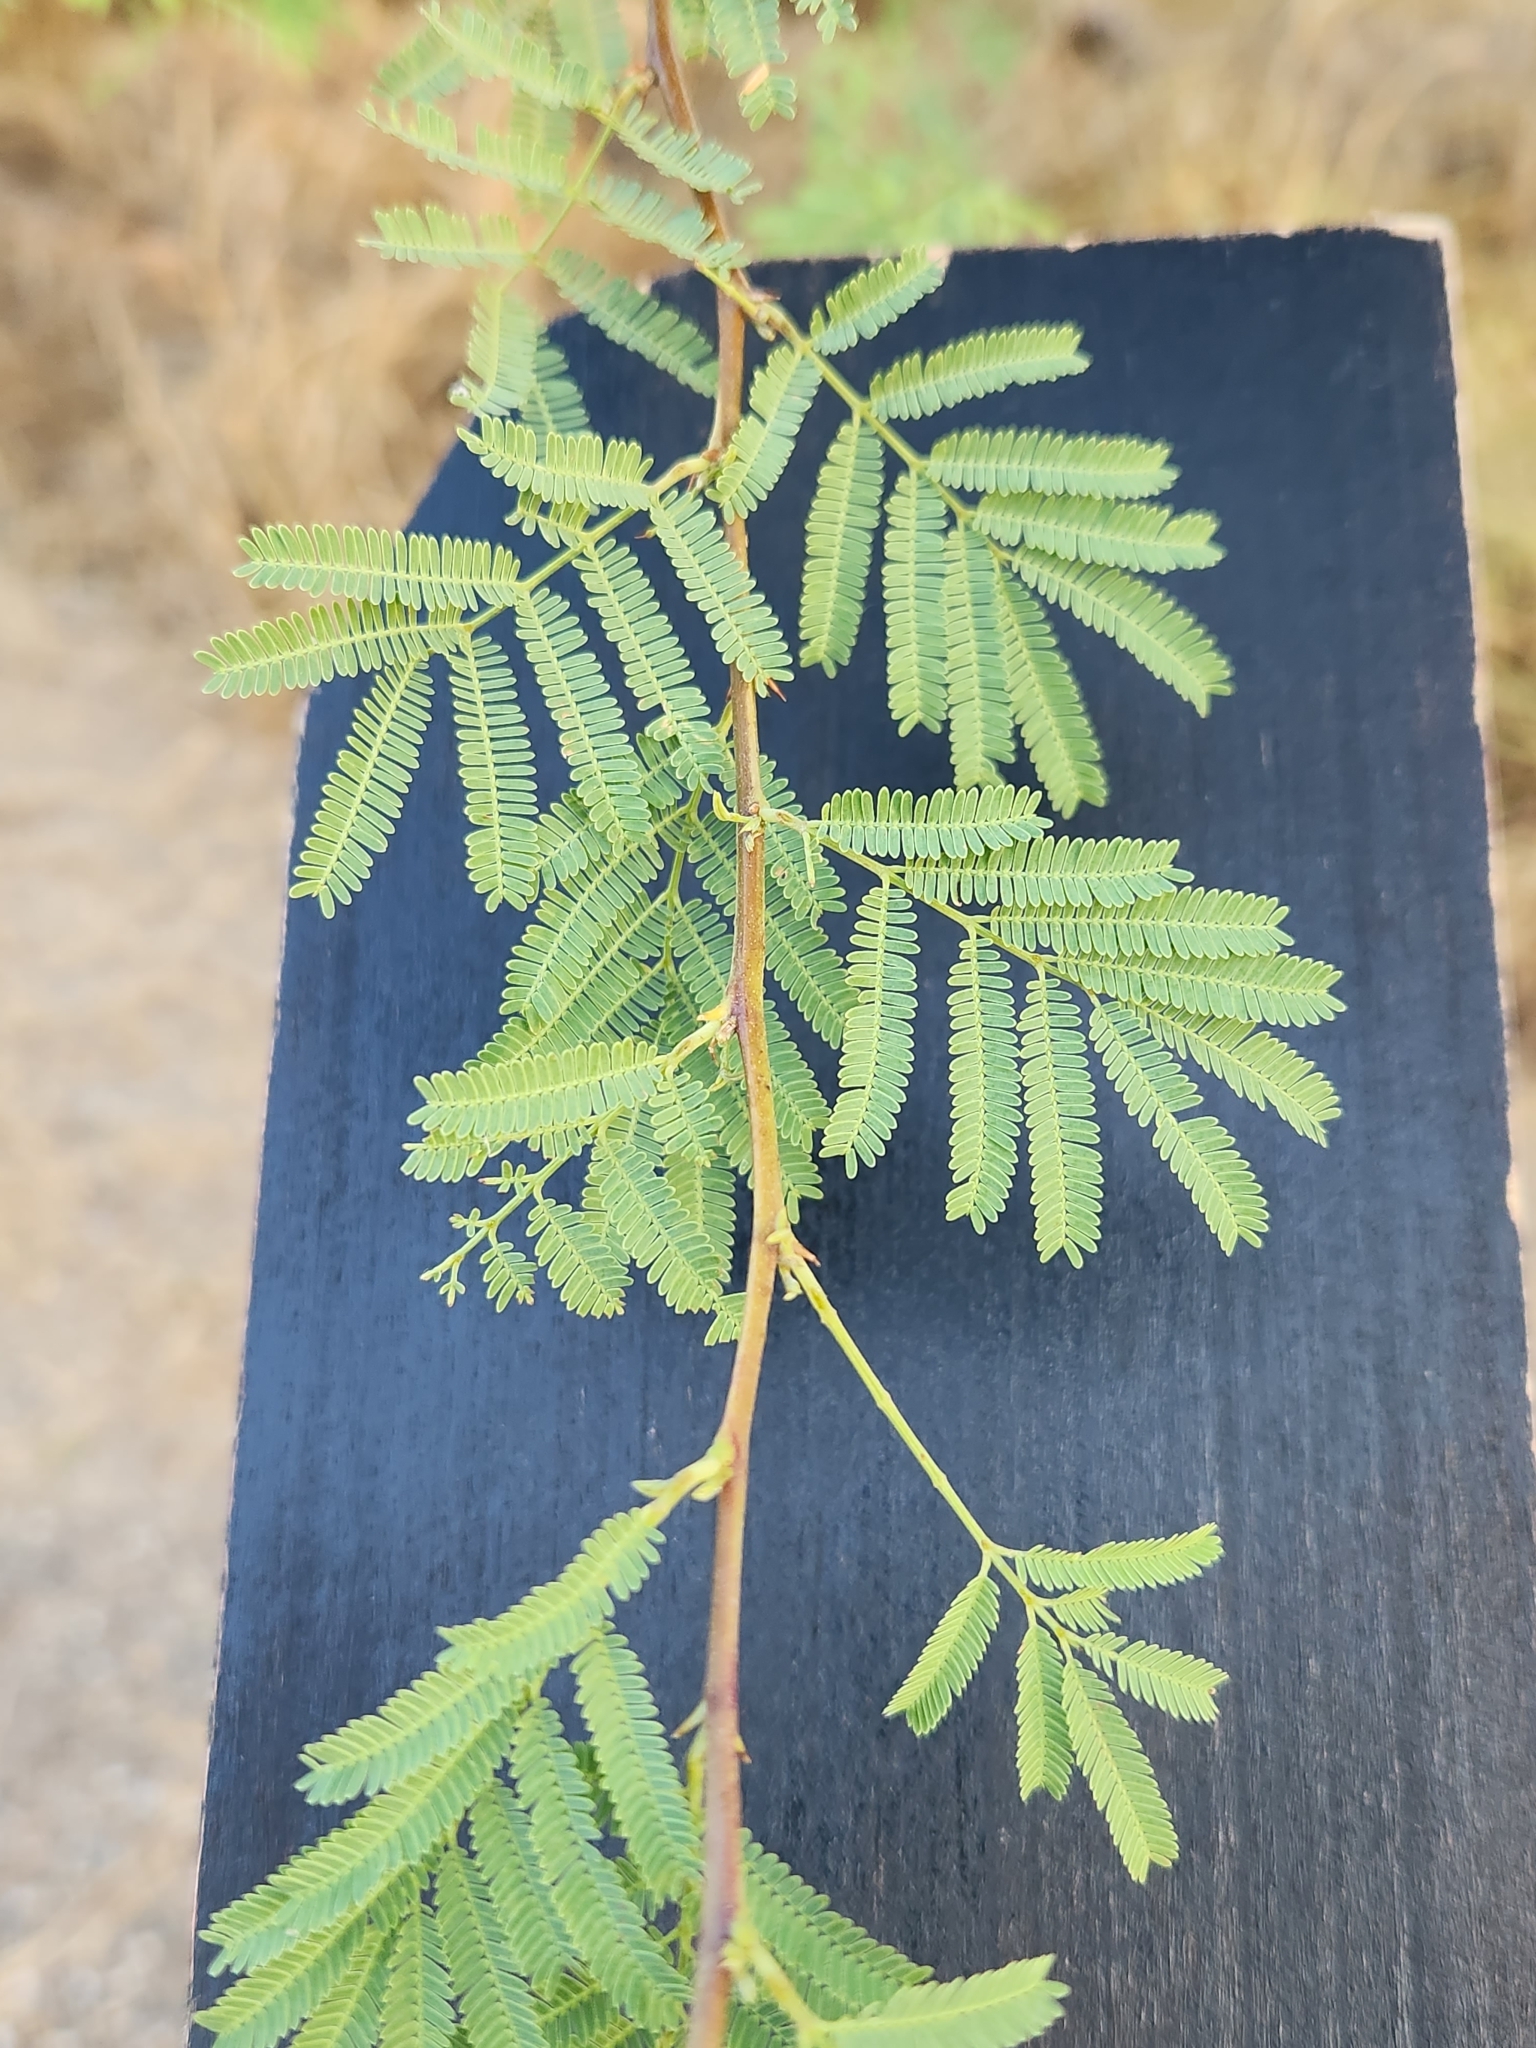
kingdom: Plantae
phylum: Tracheophyta
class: Magnoliopsida
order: Fabales
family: Fabaceae
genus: Vachellia
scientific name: Vachellia farnesiana
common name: Sweet acacia
